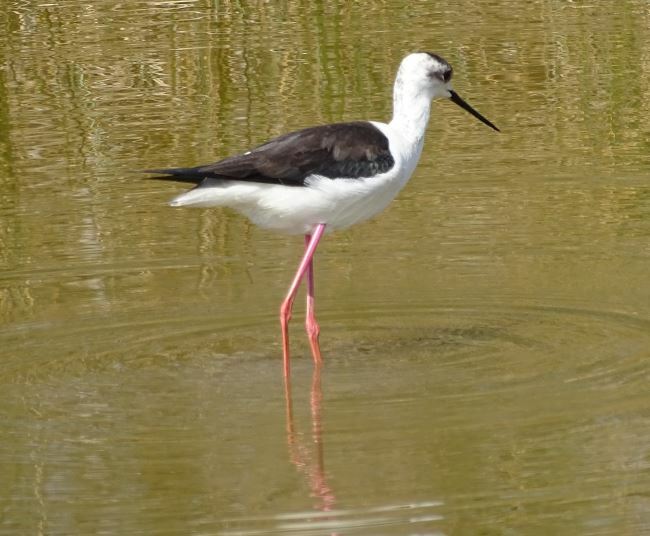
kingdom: Animalia
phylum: Chordata
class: Aves
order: Charadriiformes
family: Recurvirostridae
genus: Himantopus
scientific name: Himantopus himantopus
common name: Black-winged stilt
